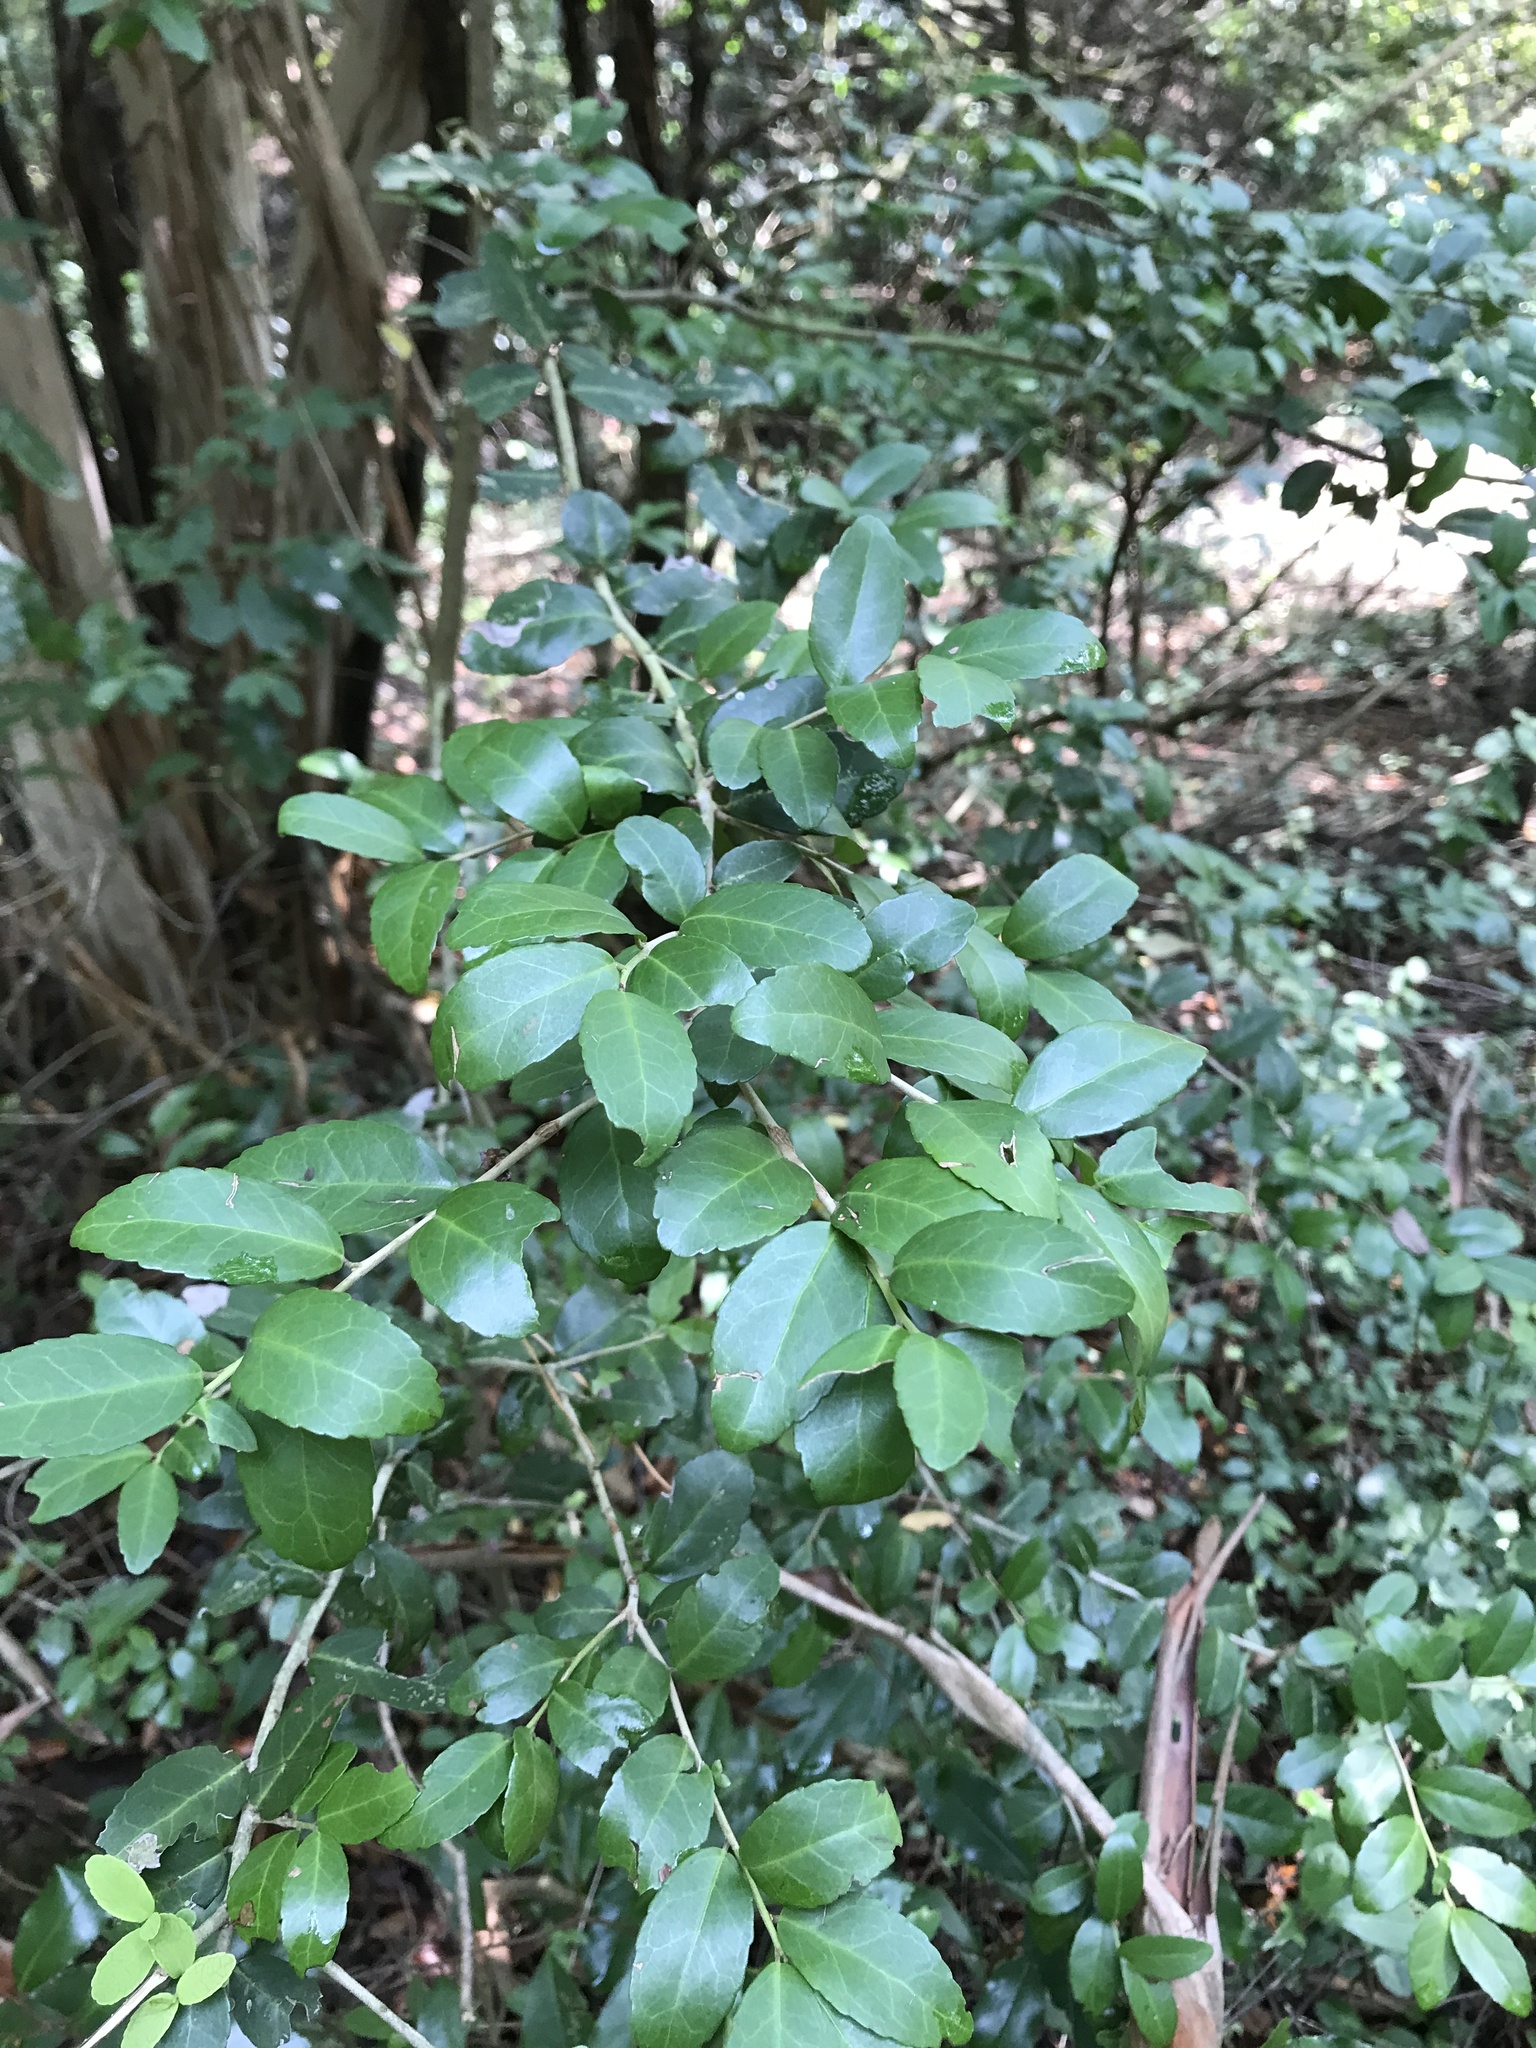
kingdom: Plantae
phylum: Tracheophyta
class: Magnoliopsida
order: Aquifoliales
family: Aquifoliaceae
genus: Ilex
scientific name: Ilex vomitoria
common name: Yaupon holly
